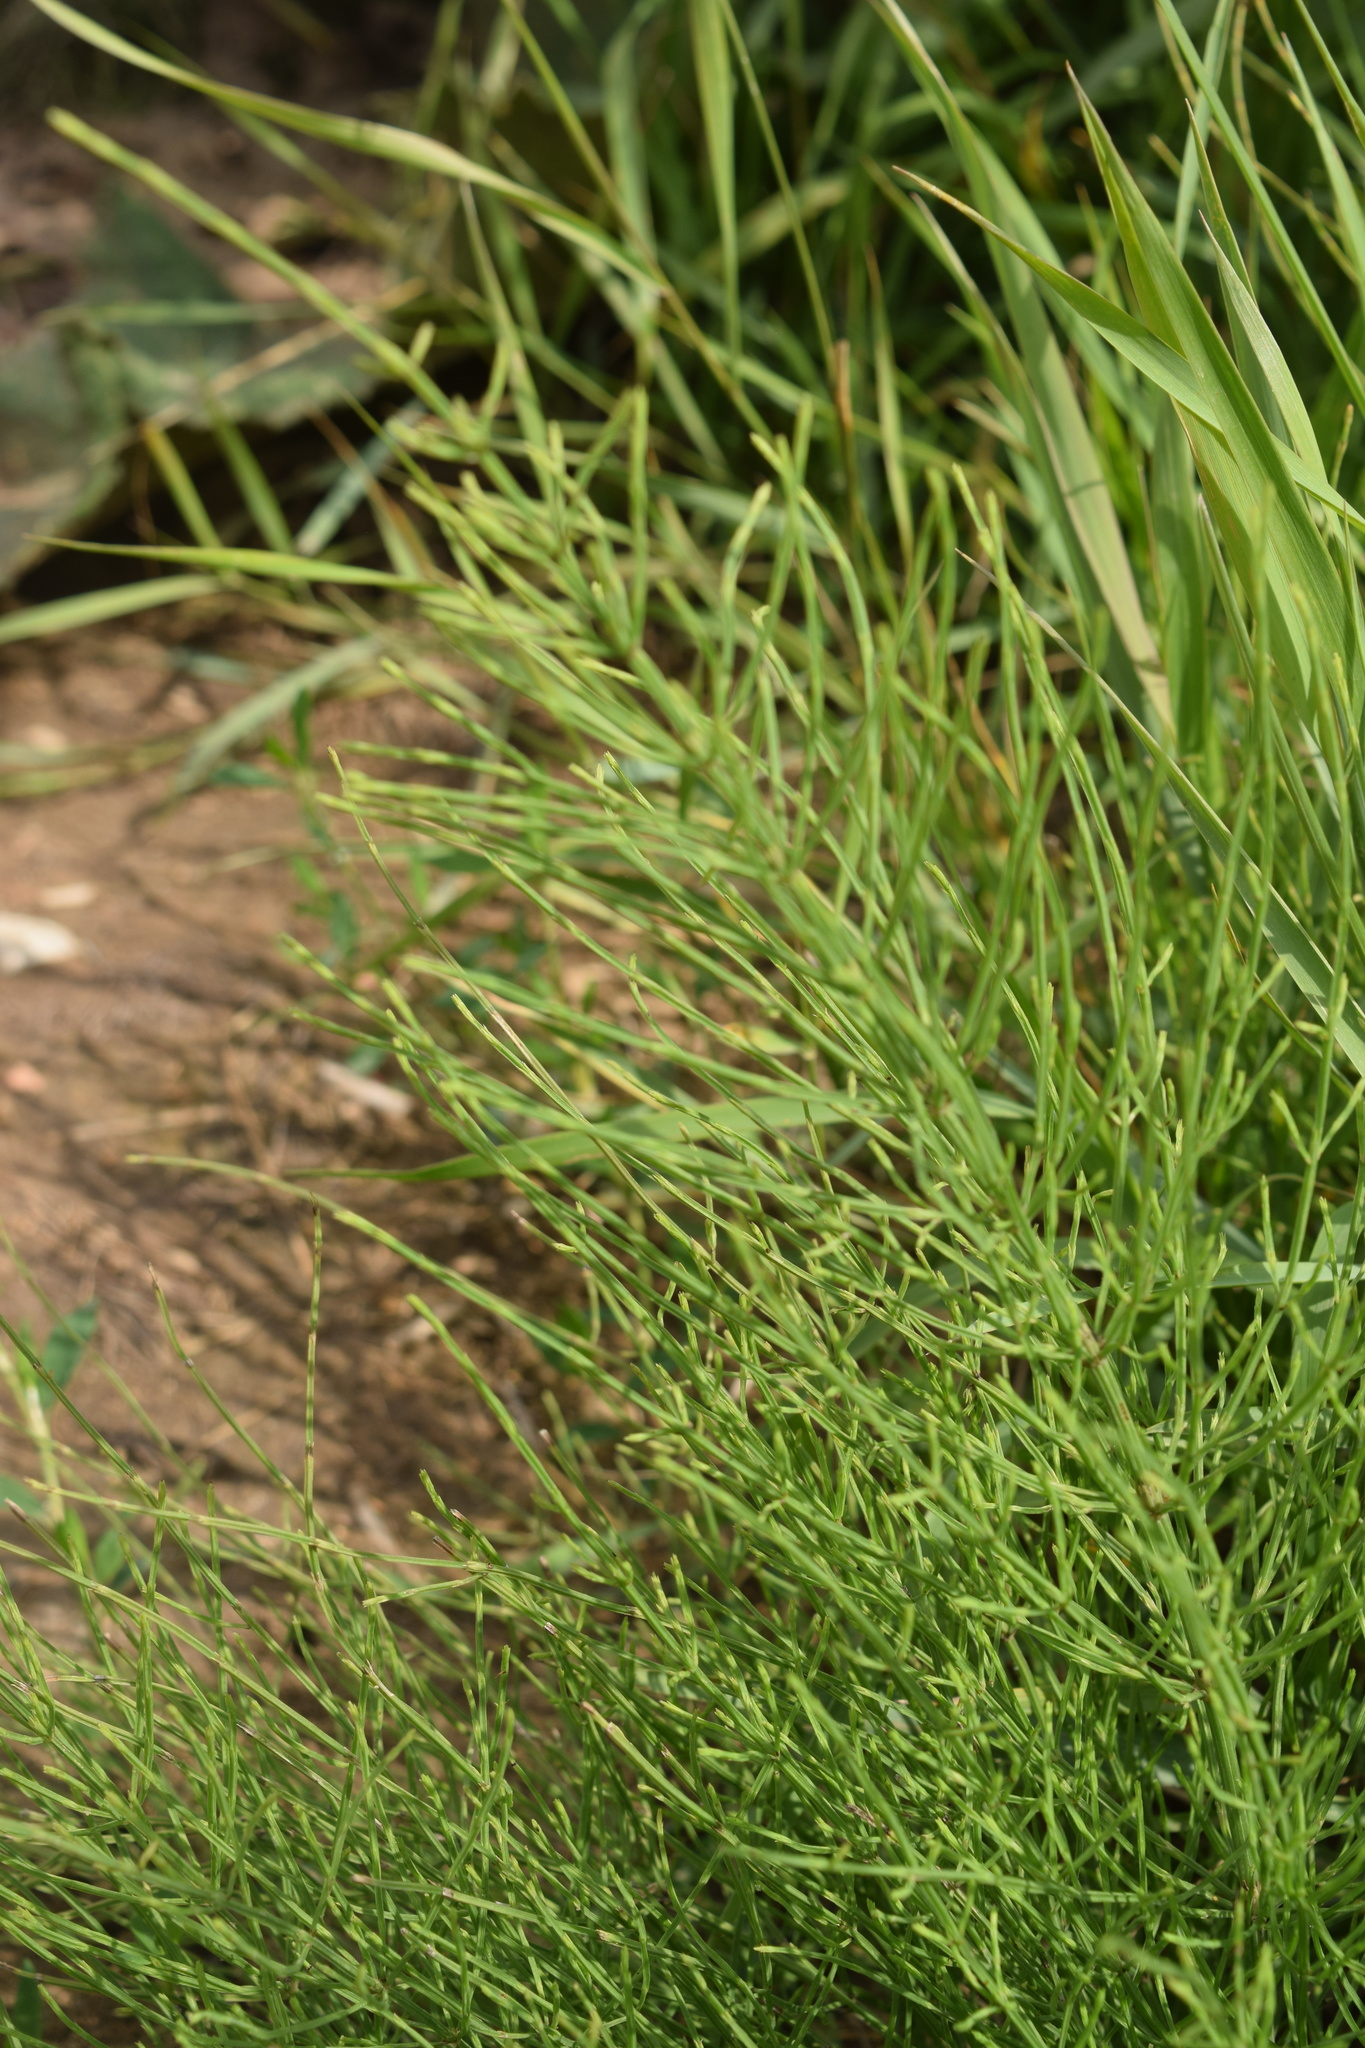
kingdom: Plantae
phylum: Tracheophyta
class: Polypodiopsida
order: Equisetales
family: Equisetaceae
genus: Equisetum
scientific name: Equisetum arvense
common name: Field horsetail
